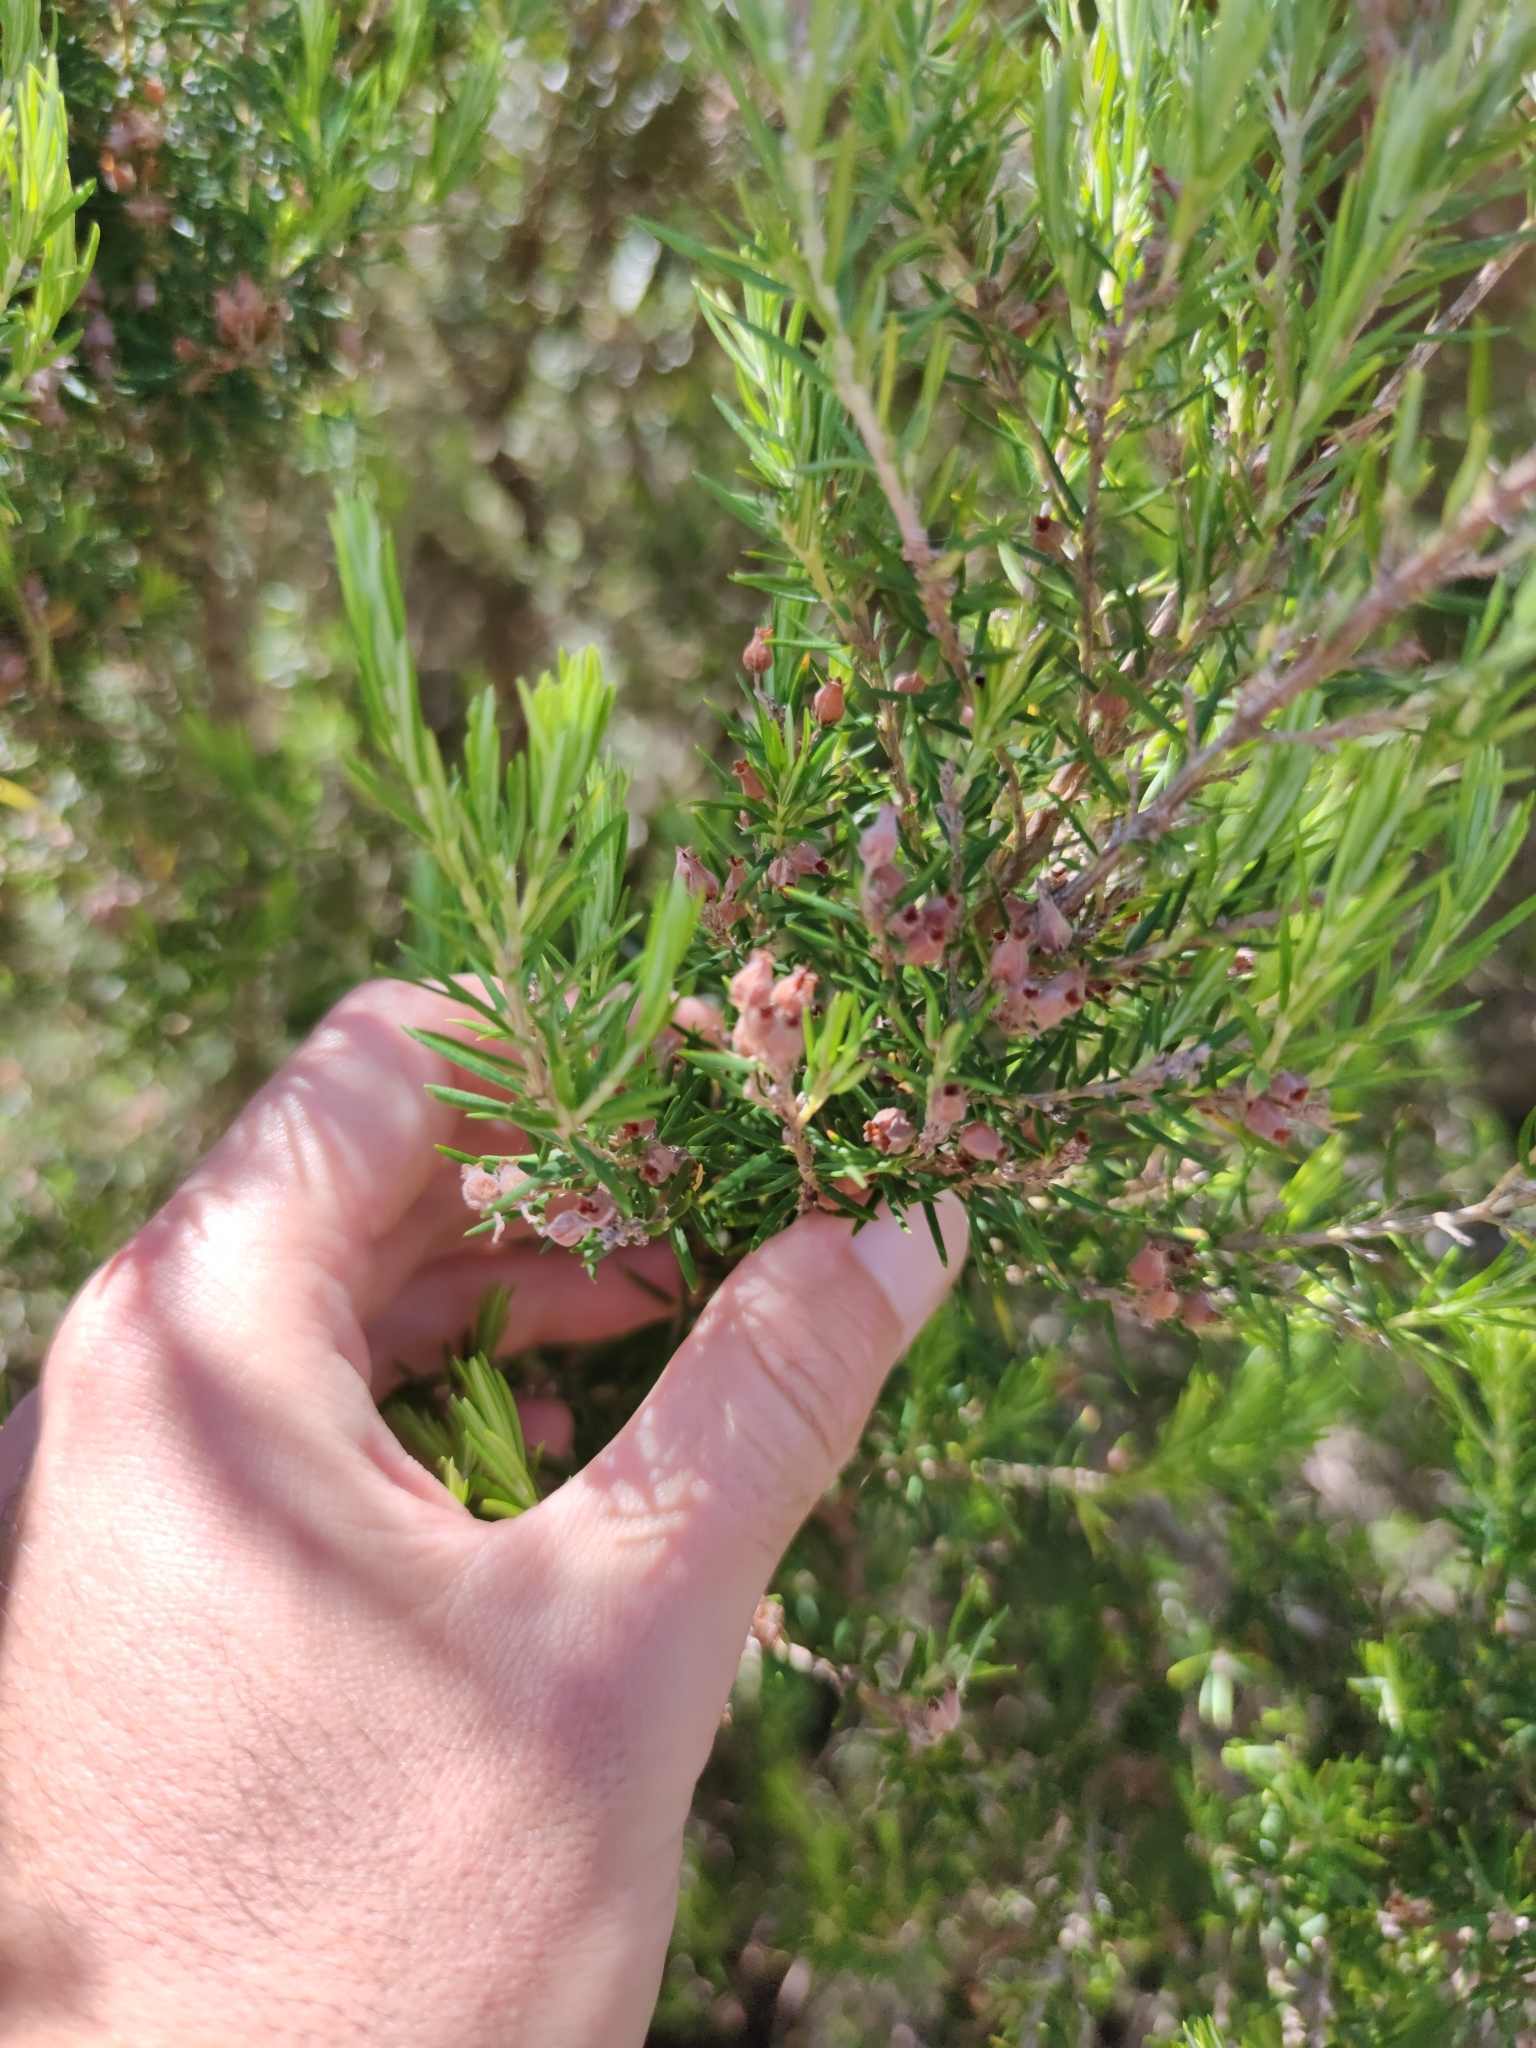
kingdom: Plantae
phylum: Tracheophyta
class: Magnoliopsida
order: Ericales
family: Ericaceae
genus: Erica
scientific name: Erica caffra
